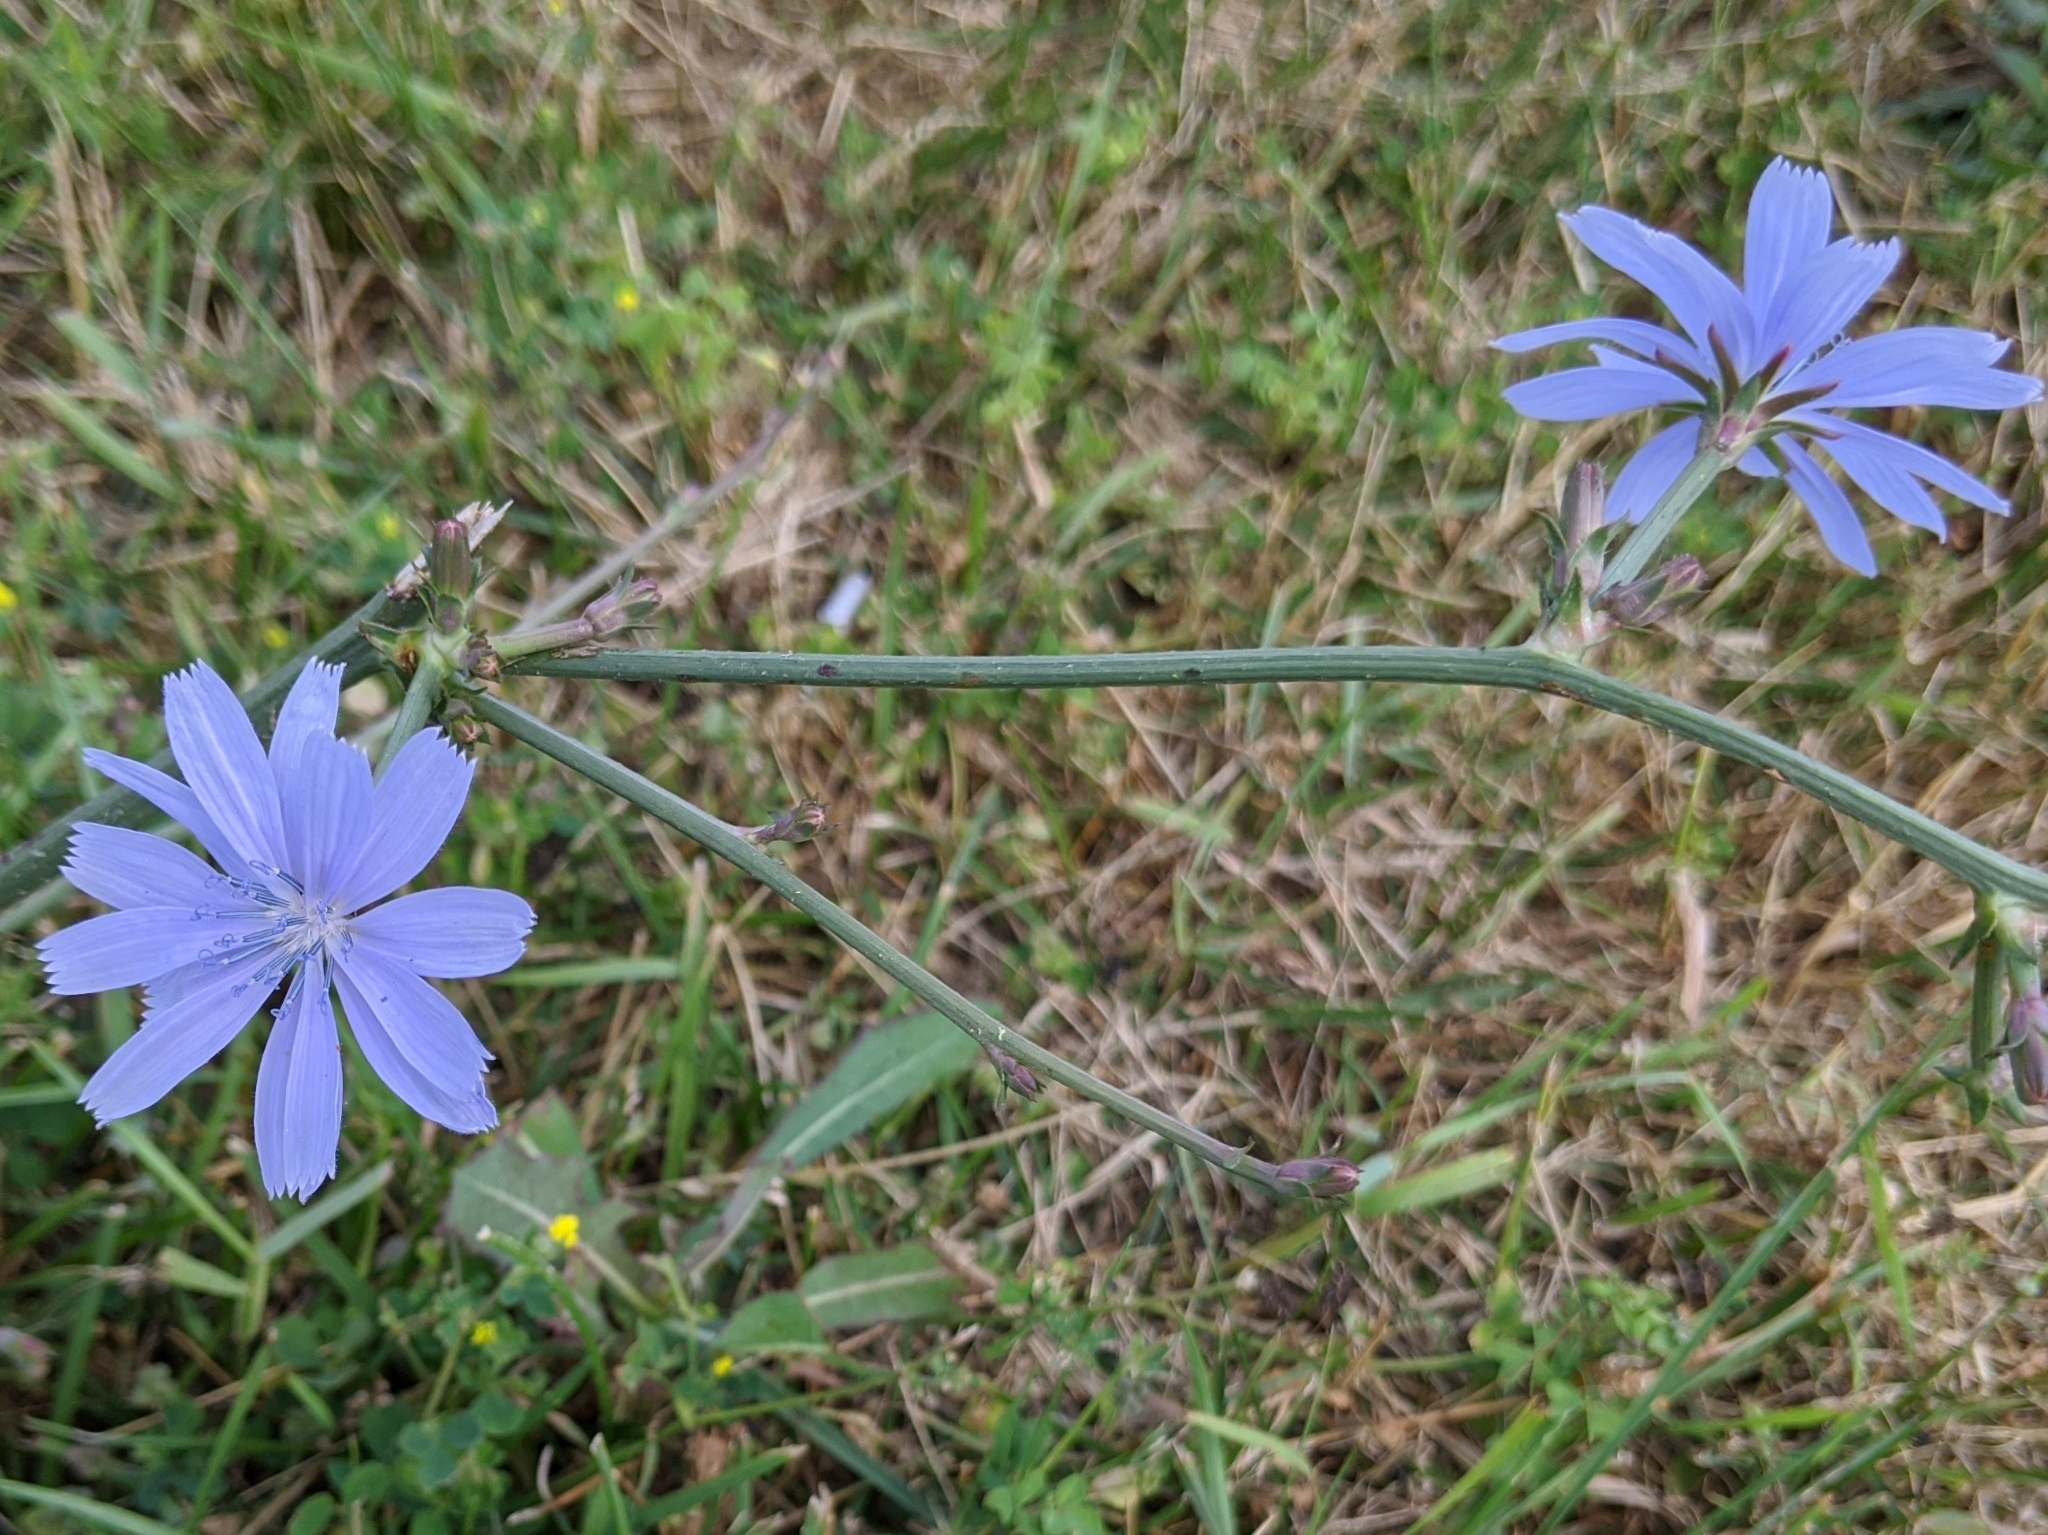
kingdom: Plantae
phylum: Tracheophyta
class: Magnoliopsida
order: Asterales
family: Asteraceae
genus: Cichorium
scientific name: Cichorium intybus
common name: Chicory
